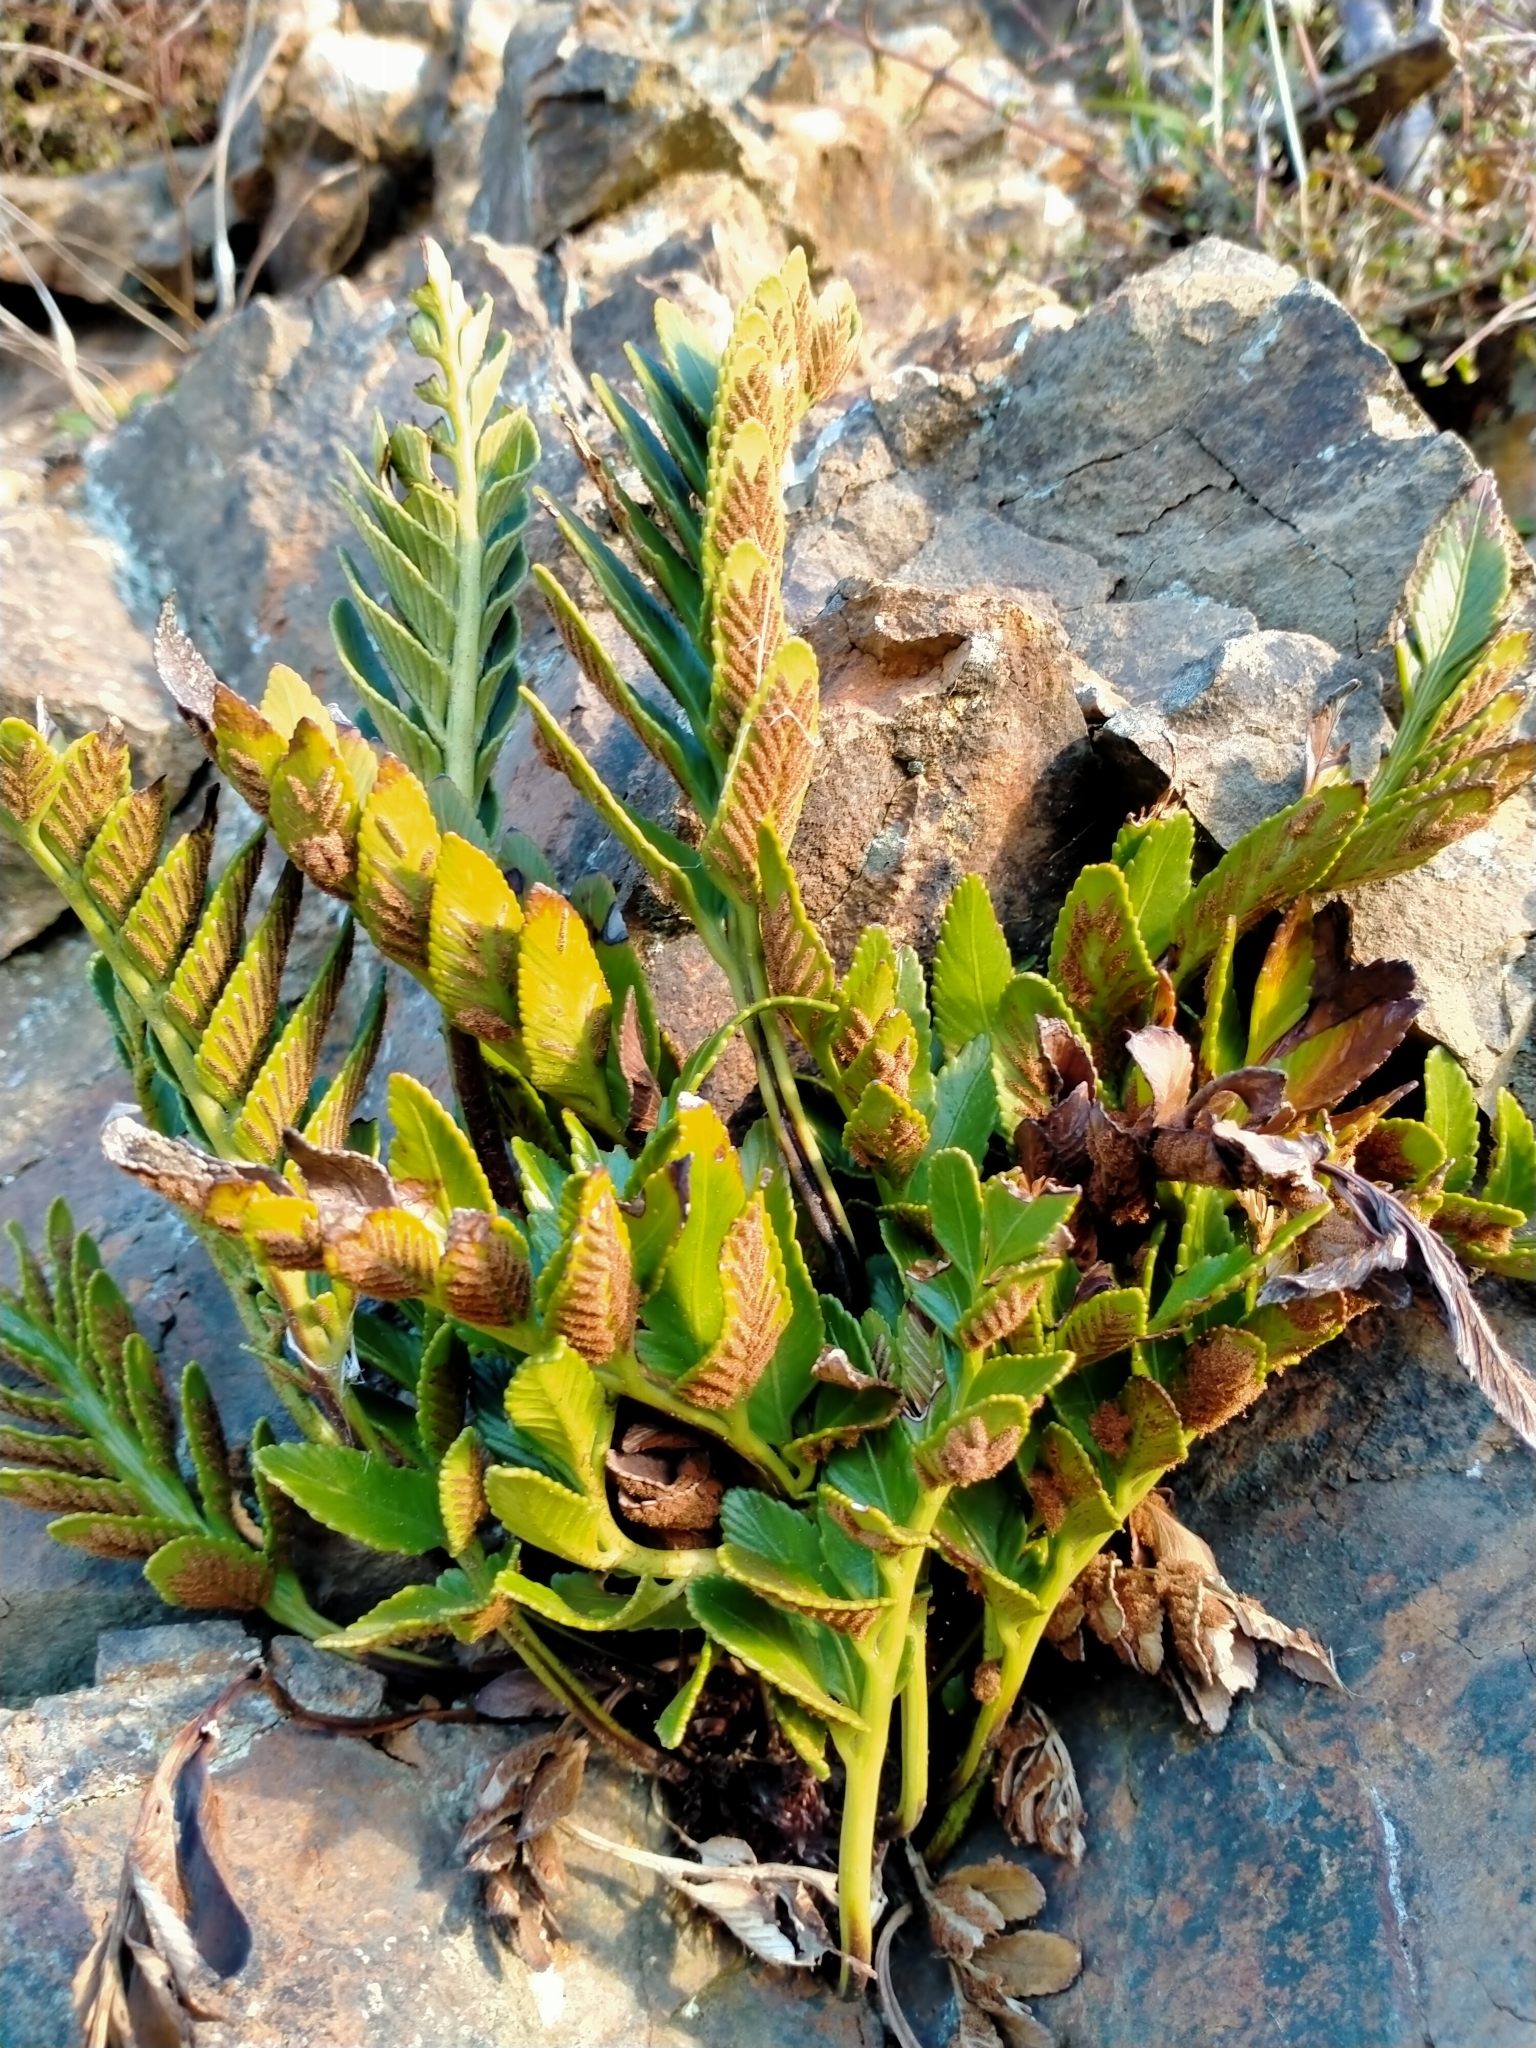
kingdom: Plantae
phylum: Tracheophyta
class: Polypodiopsida
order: Polypodiales
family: Aspleniaceae
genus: Asplenium
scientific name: Asplenium obtusatum
